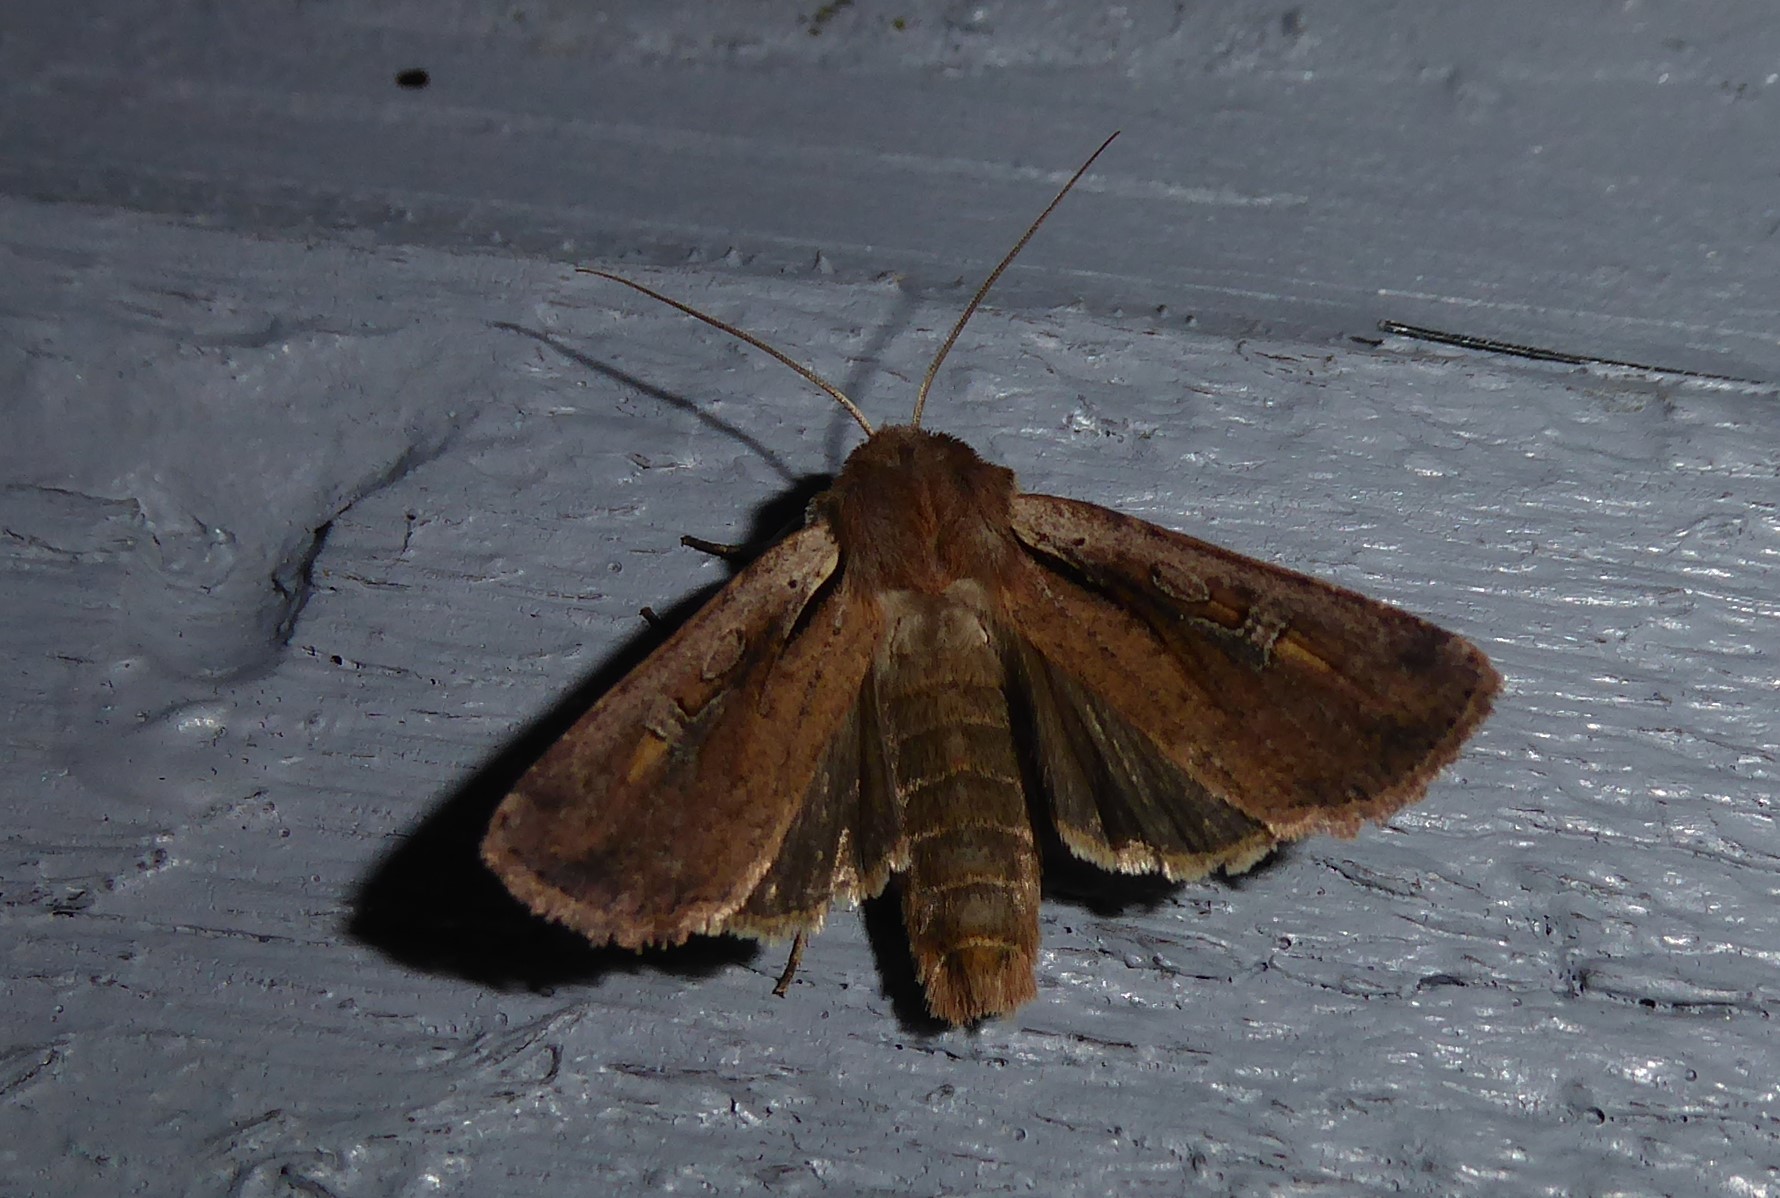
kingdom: Animalia
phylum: Arthropoda
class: Insecta
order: Lepidoptera
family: Noctuidae
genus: Ichneutica
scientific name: Ichneutica atristriga
